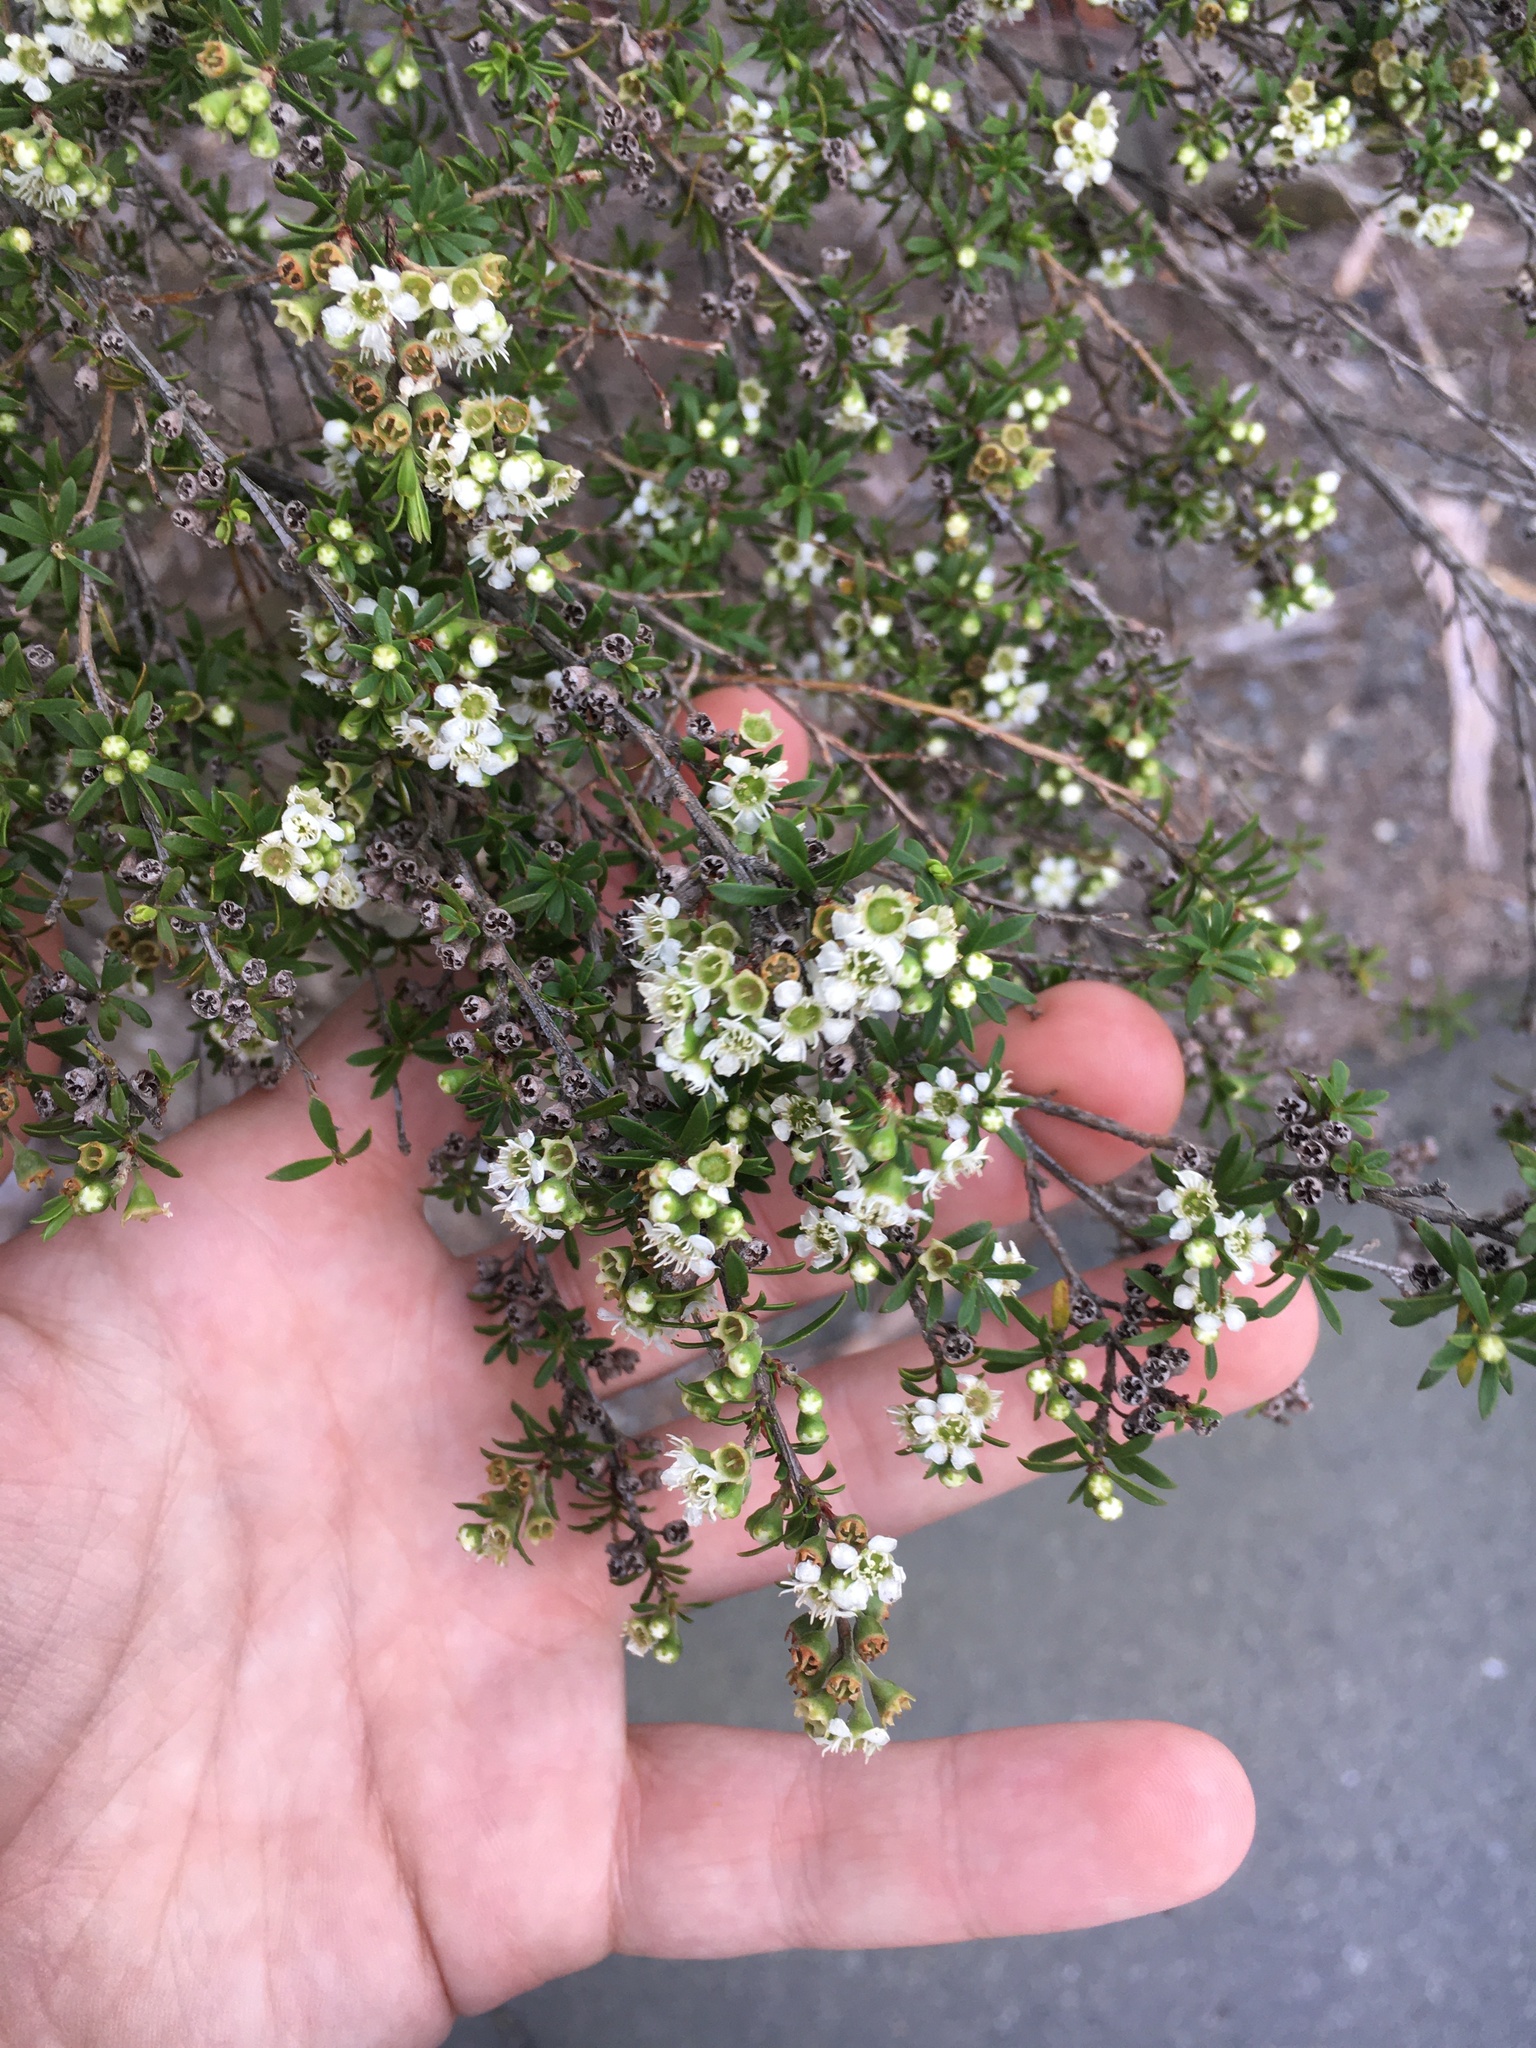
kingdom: Plantae
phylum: Tracheophyta
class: Magnoliopsida
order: Myrtales
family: Myrtaceae
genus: Kunzea
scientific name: Kunzea tenuicaulis
